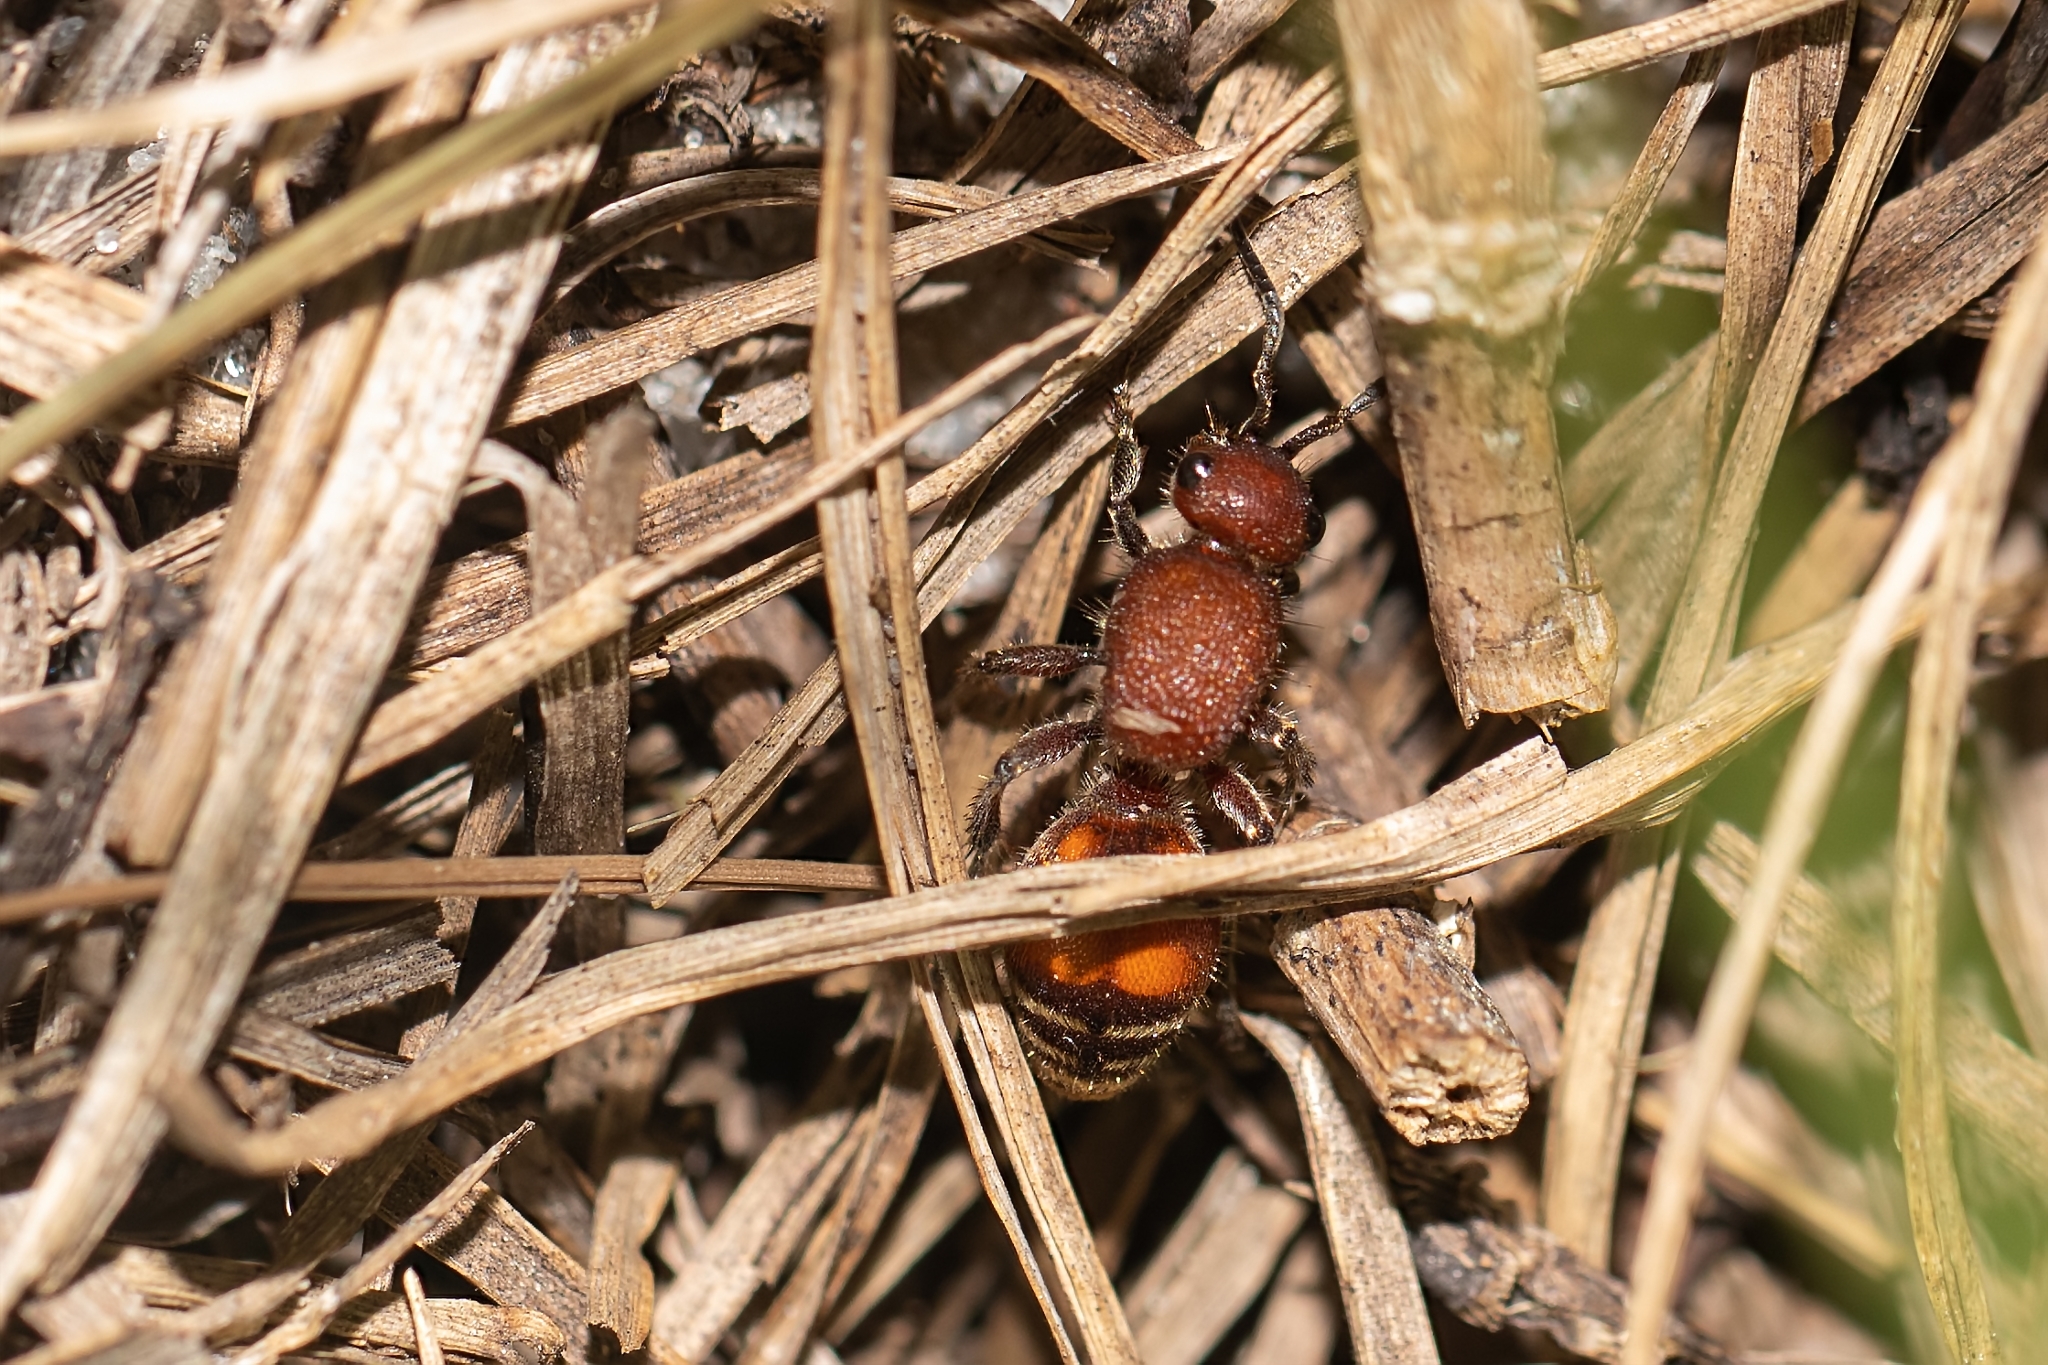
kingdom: Animalia
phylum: Arthropoda
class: Insecta
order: Hymenoptera
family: Mutillidae
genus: Dasymutilla
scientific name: Dasymutilla
